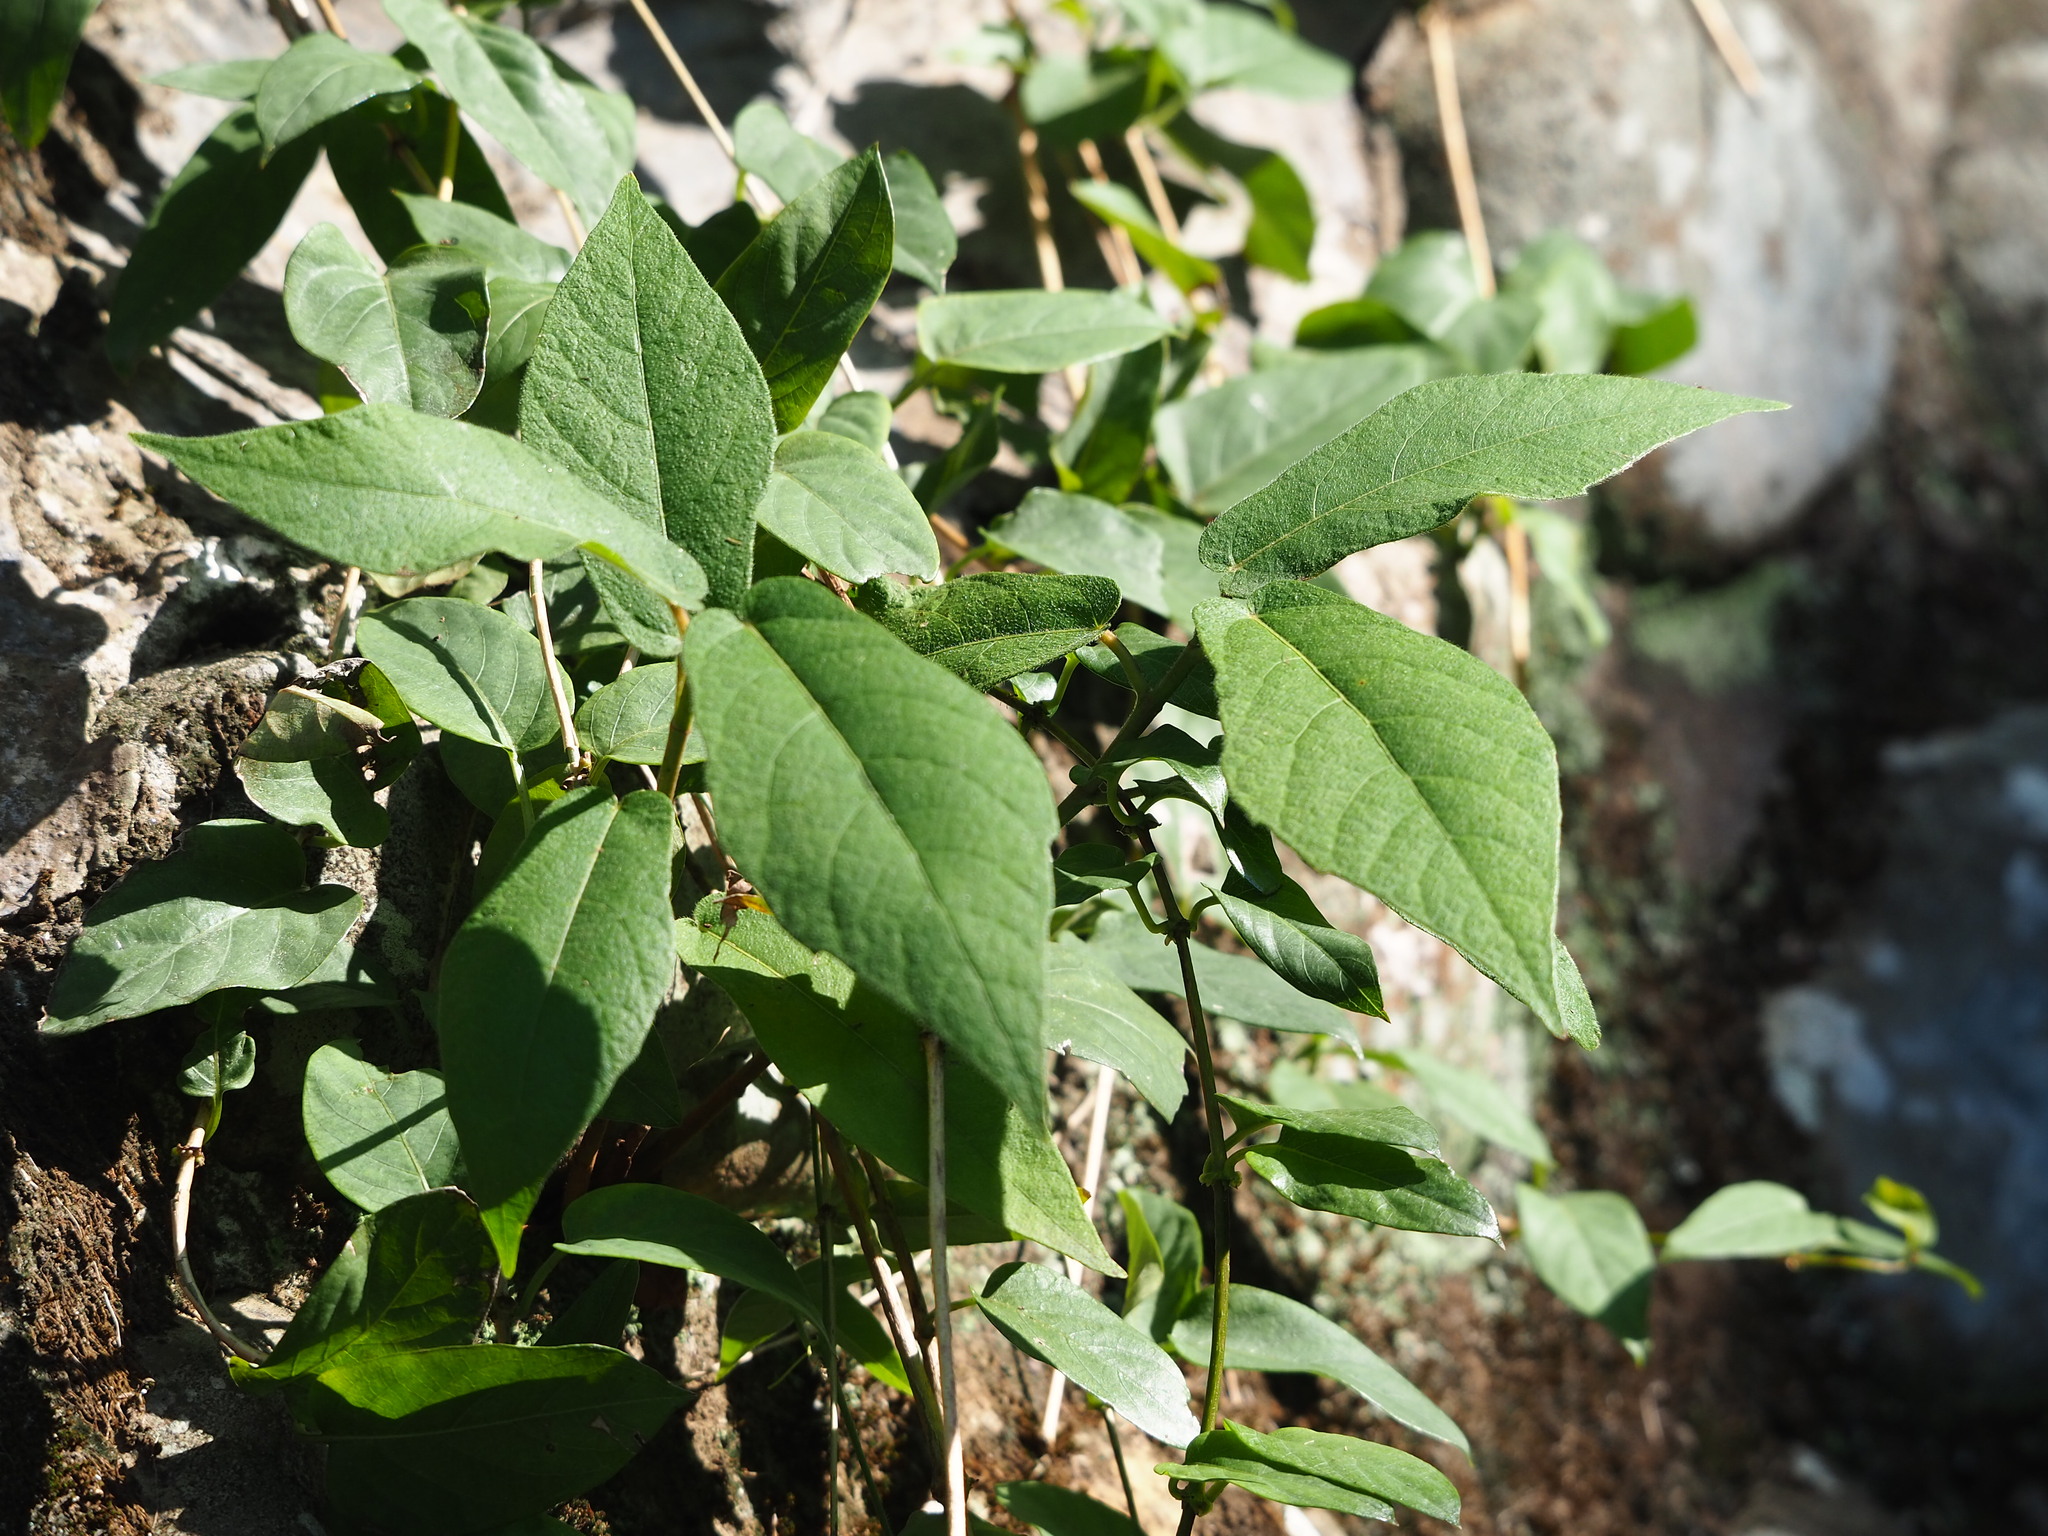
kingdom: Plantae
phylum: Tracheophyta
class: Magnoliopsida
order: Rosales
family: Moraceae
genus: Ficus
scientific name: Ficus erecta
